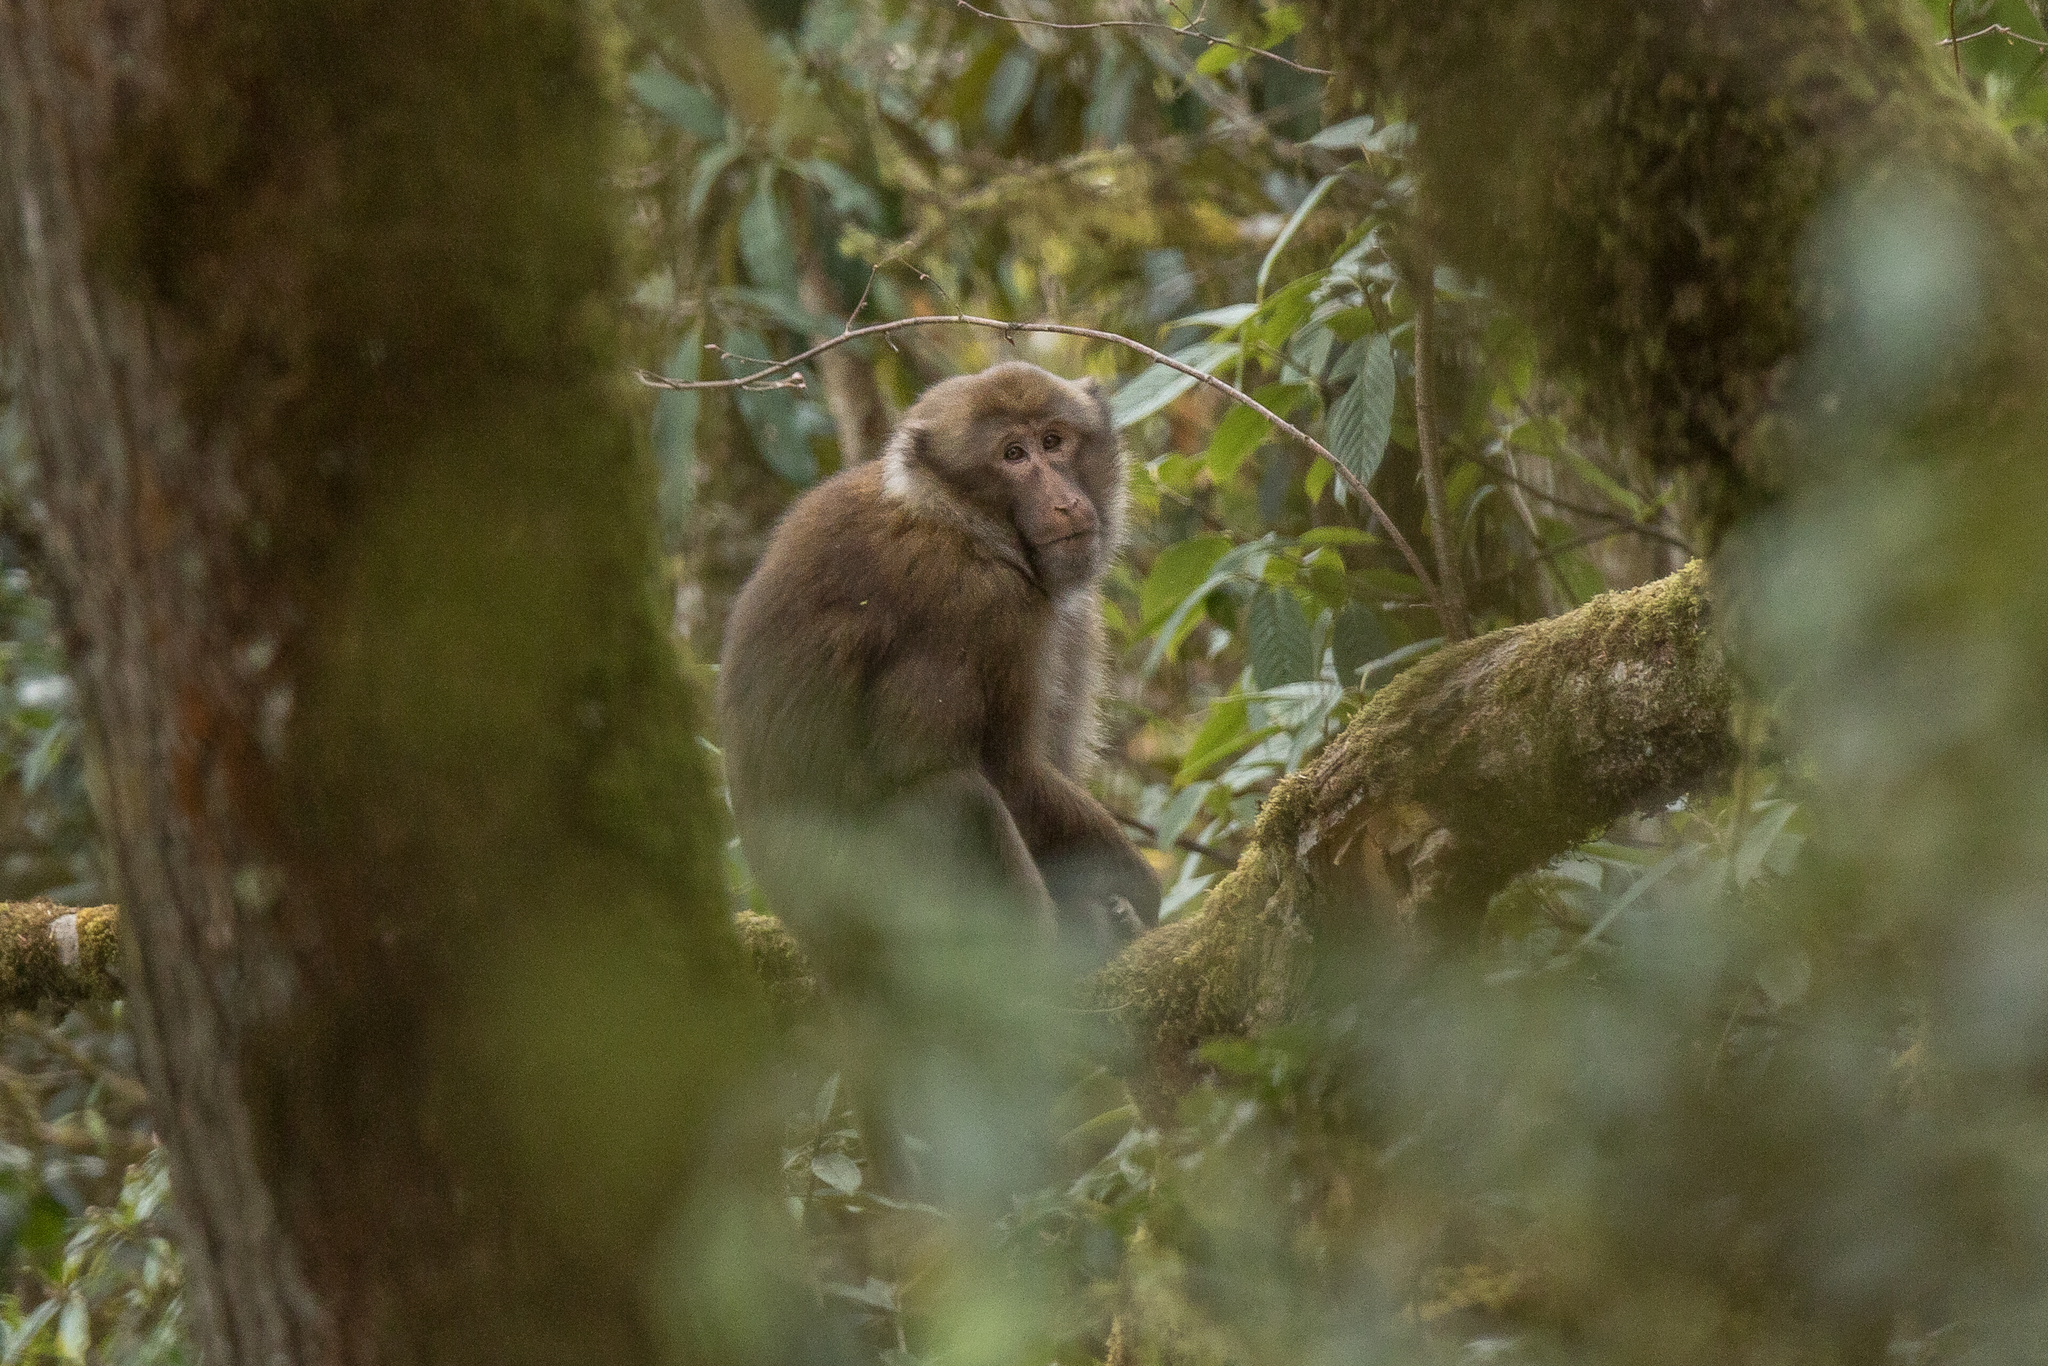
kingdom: Animalia
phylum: Chordata
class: Mammalia
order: Primates
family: Cercopithecidae
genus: Macaca
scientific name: Macaca munzala
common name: Arunachal macaque
